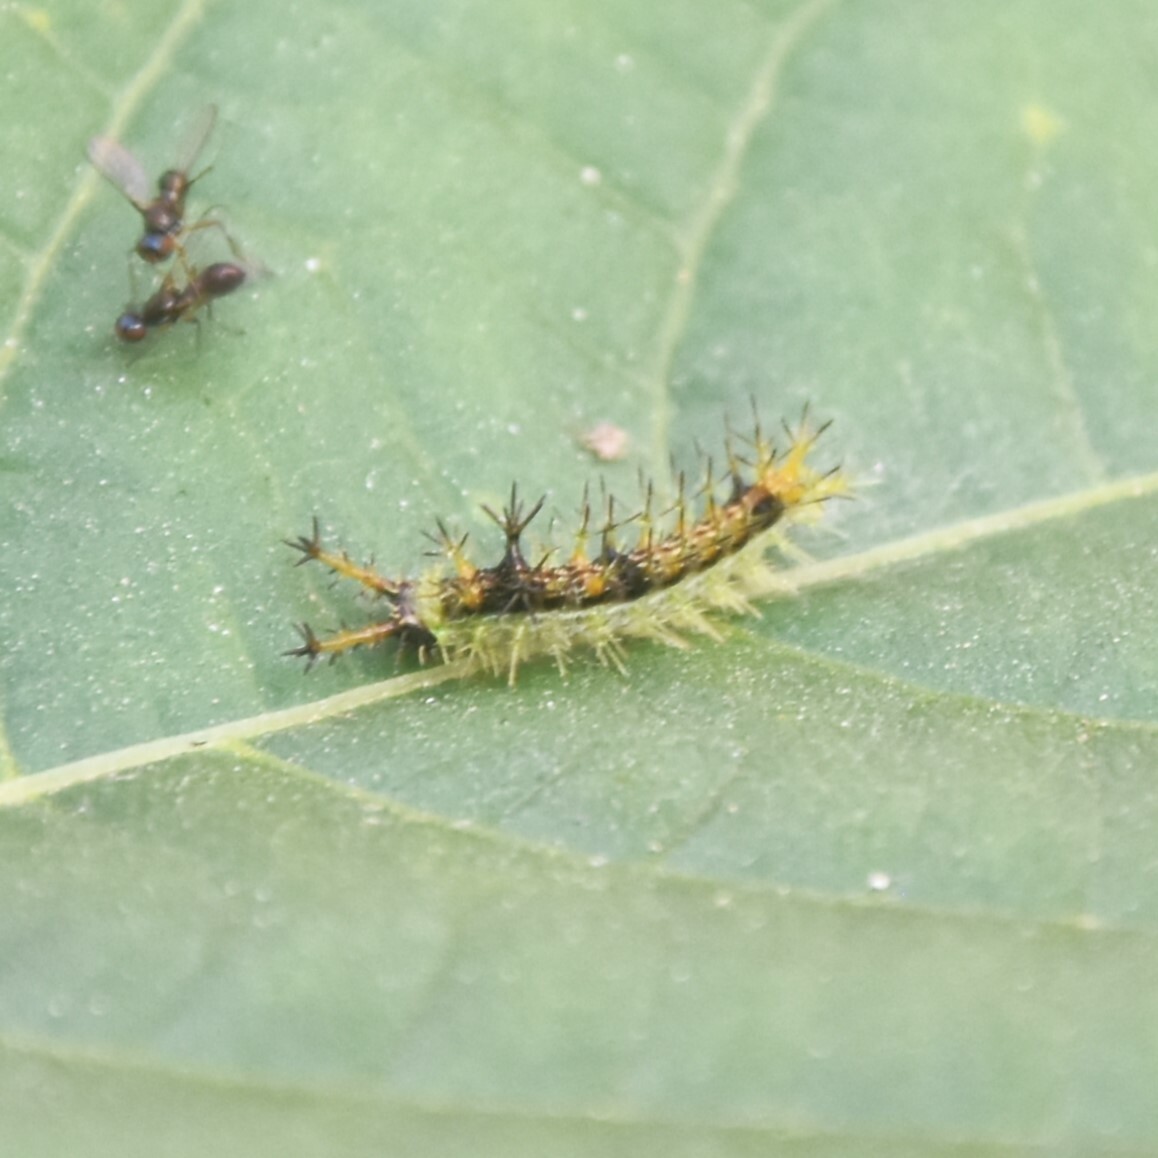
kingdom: Animalia
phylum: Arthropoda
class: Insecta
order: Lepidoptera
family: Nymphalidae
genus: Ariadne
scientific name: Ariadne merione
